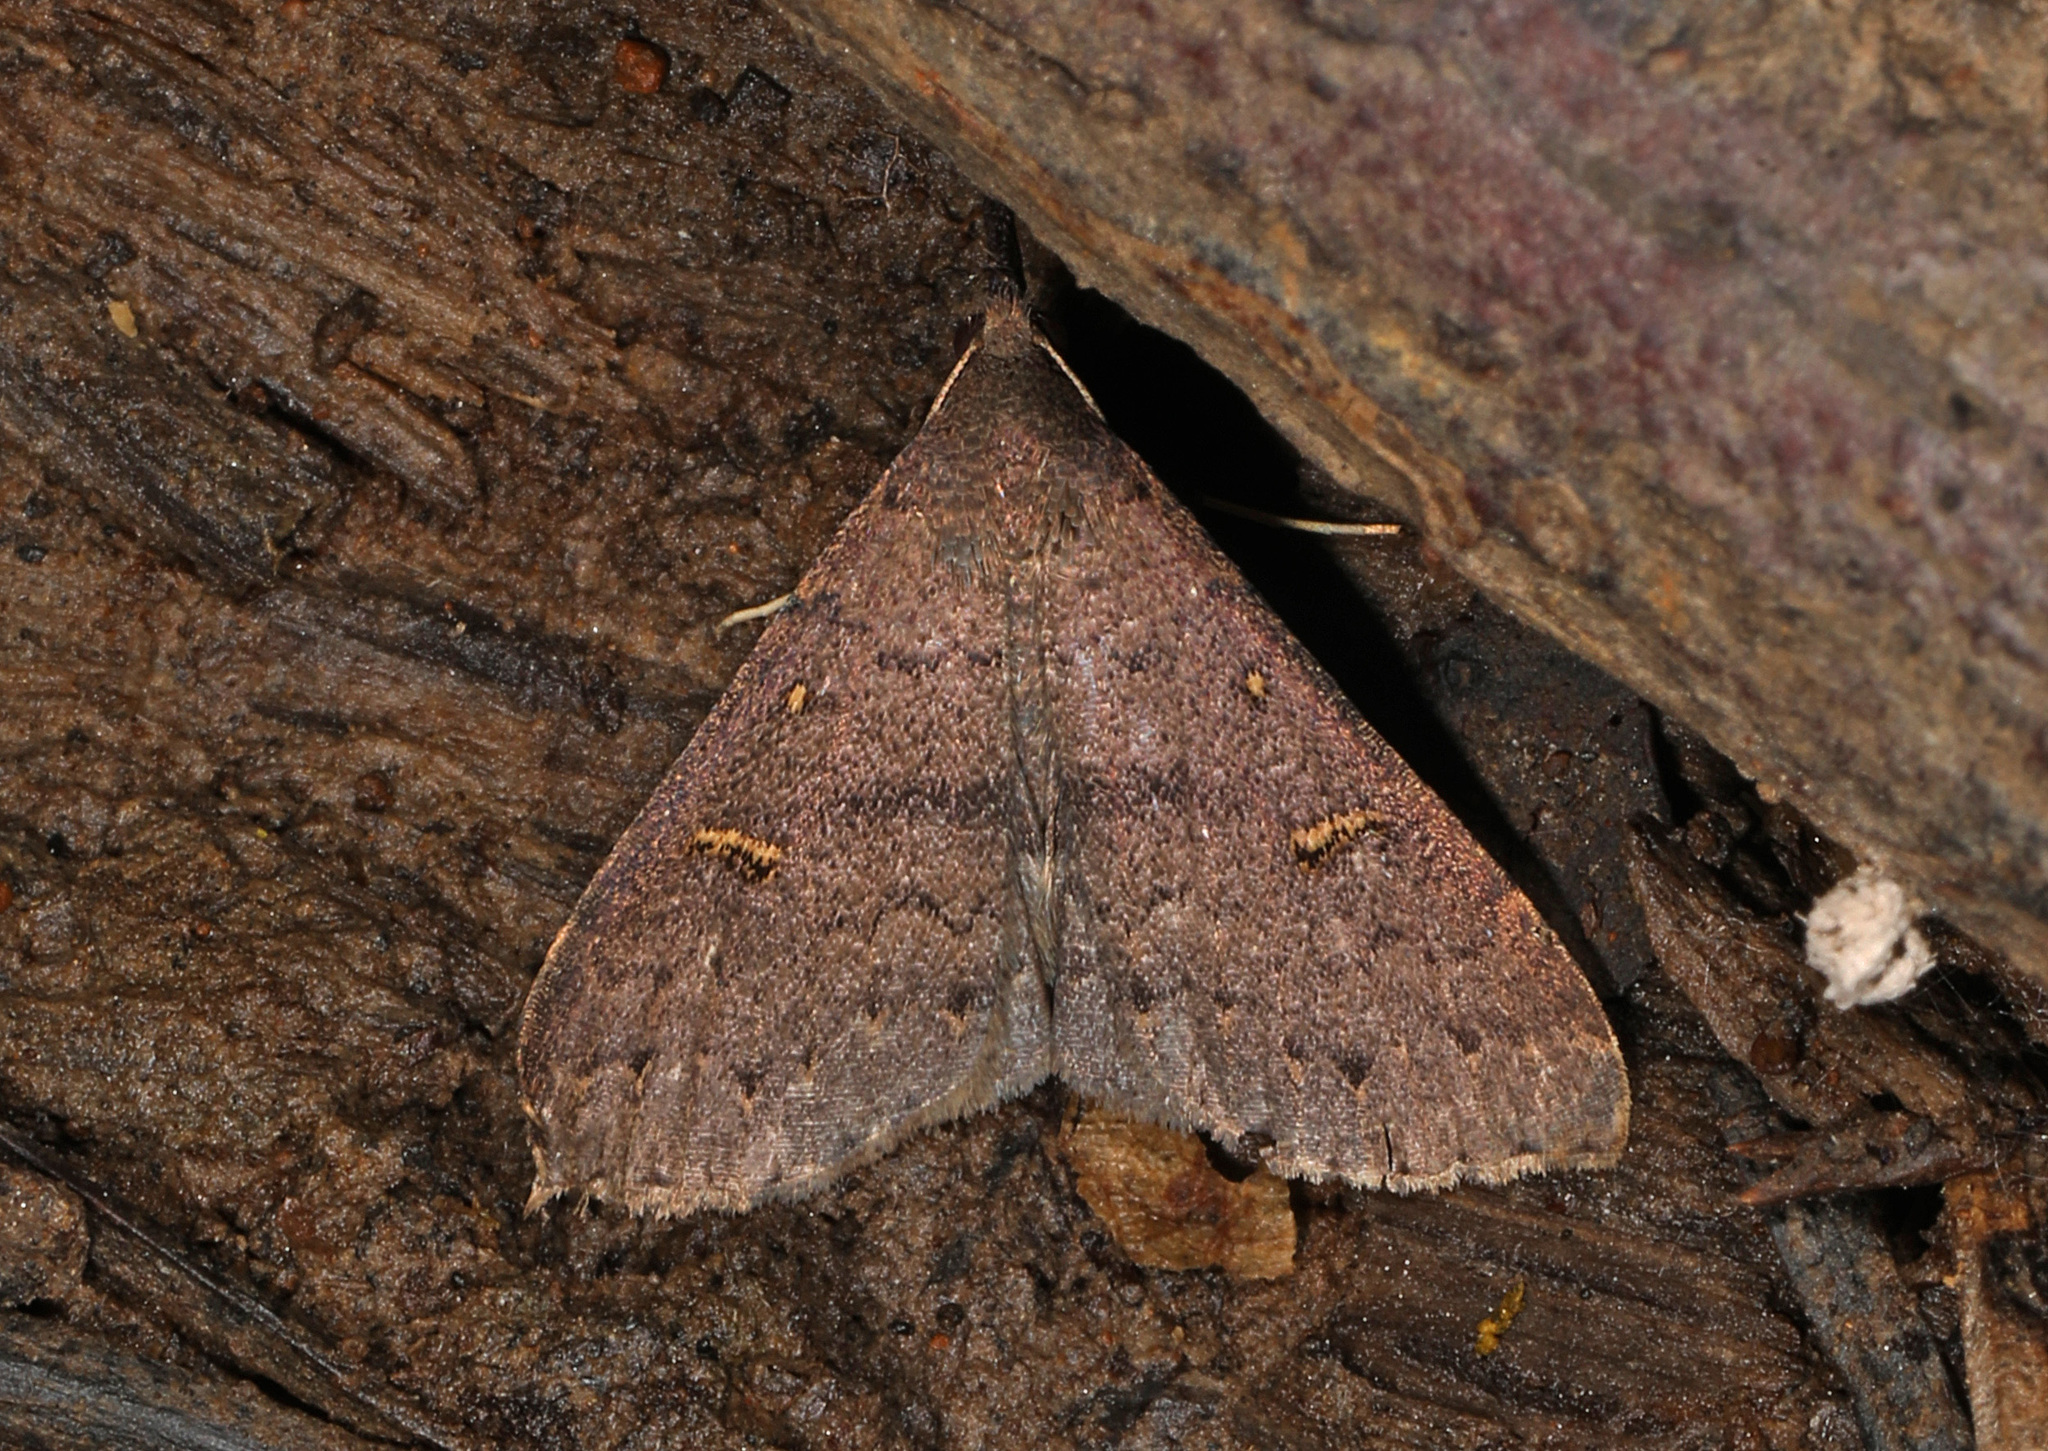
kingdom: Animalia
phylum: Arthropoda
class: Insecta
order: Lepidoptera
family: Erebidae
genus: Renia
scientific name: Renia adspergillus
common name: Speckled renia moth
